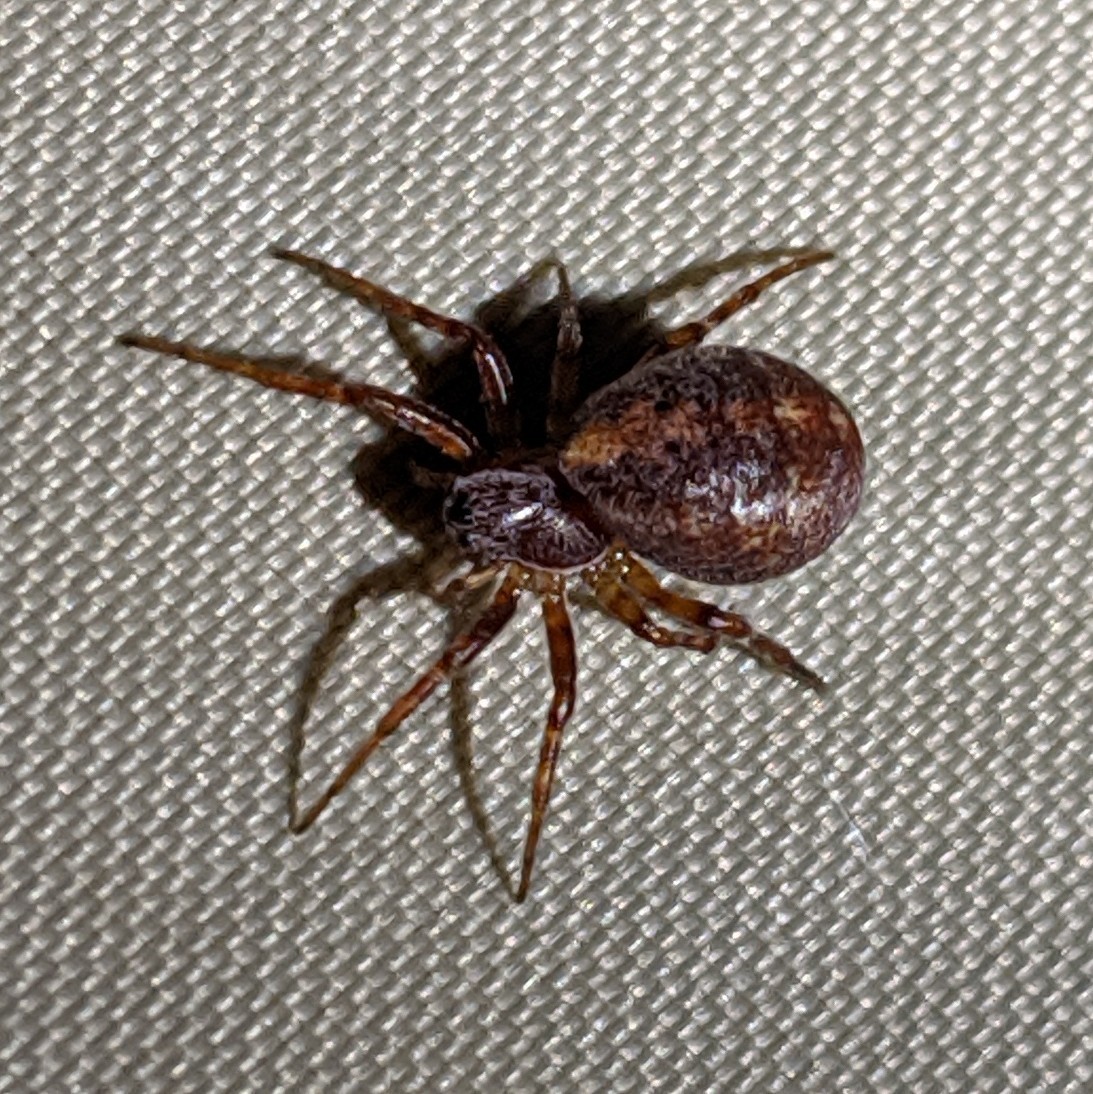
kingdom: Animalia
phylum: Arthropoda
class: Arachnida
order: Araneae
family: Araneidae
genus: Cercidia
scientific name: Cercidia prominens
